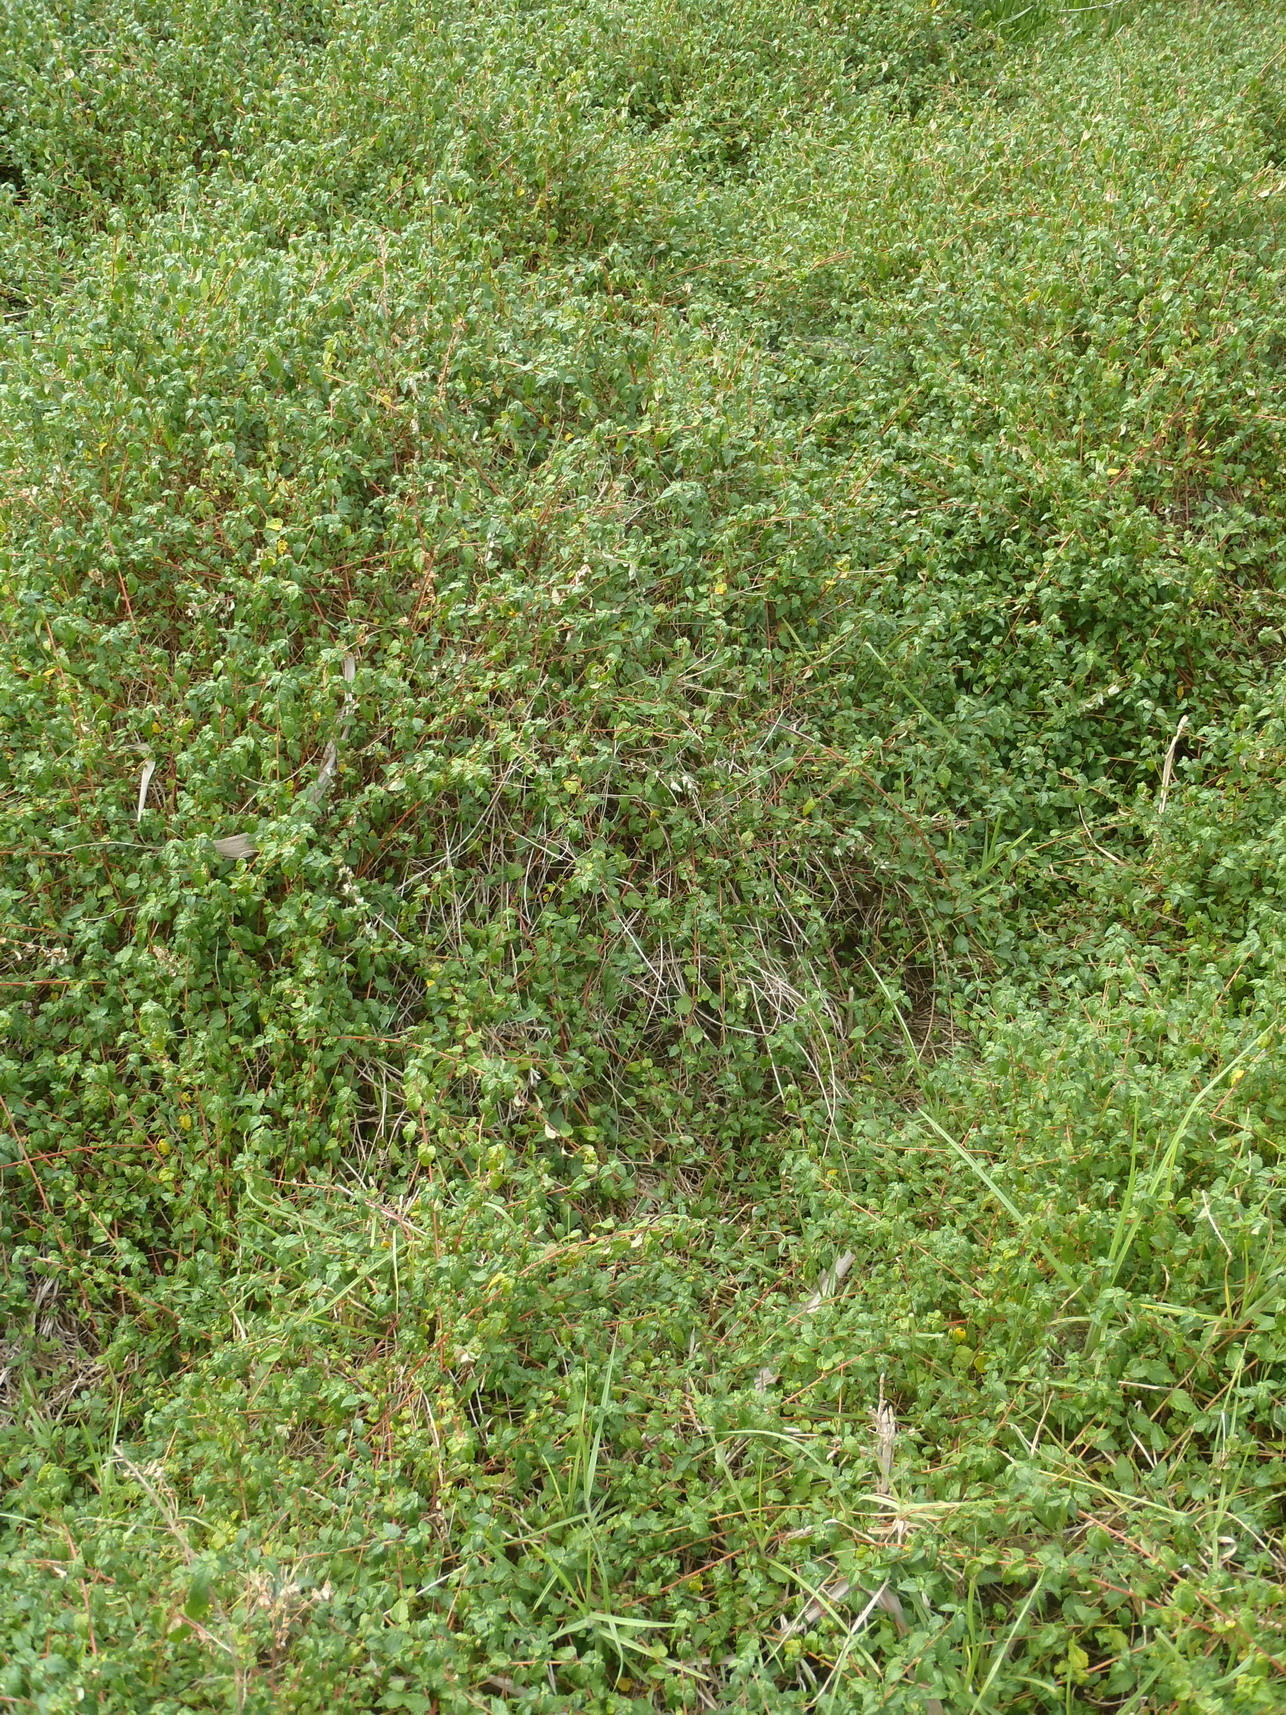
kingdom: Plantae
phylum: Tracheophyta
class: Magnoliopsida
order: Malpighiales
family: Euphorbiaceae
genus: Bernardia
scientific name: Bernardia corensis
